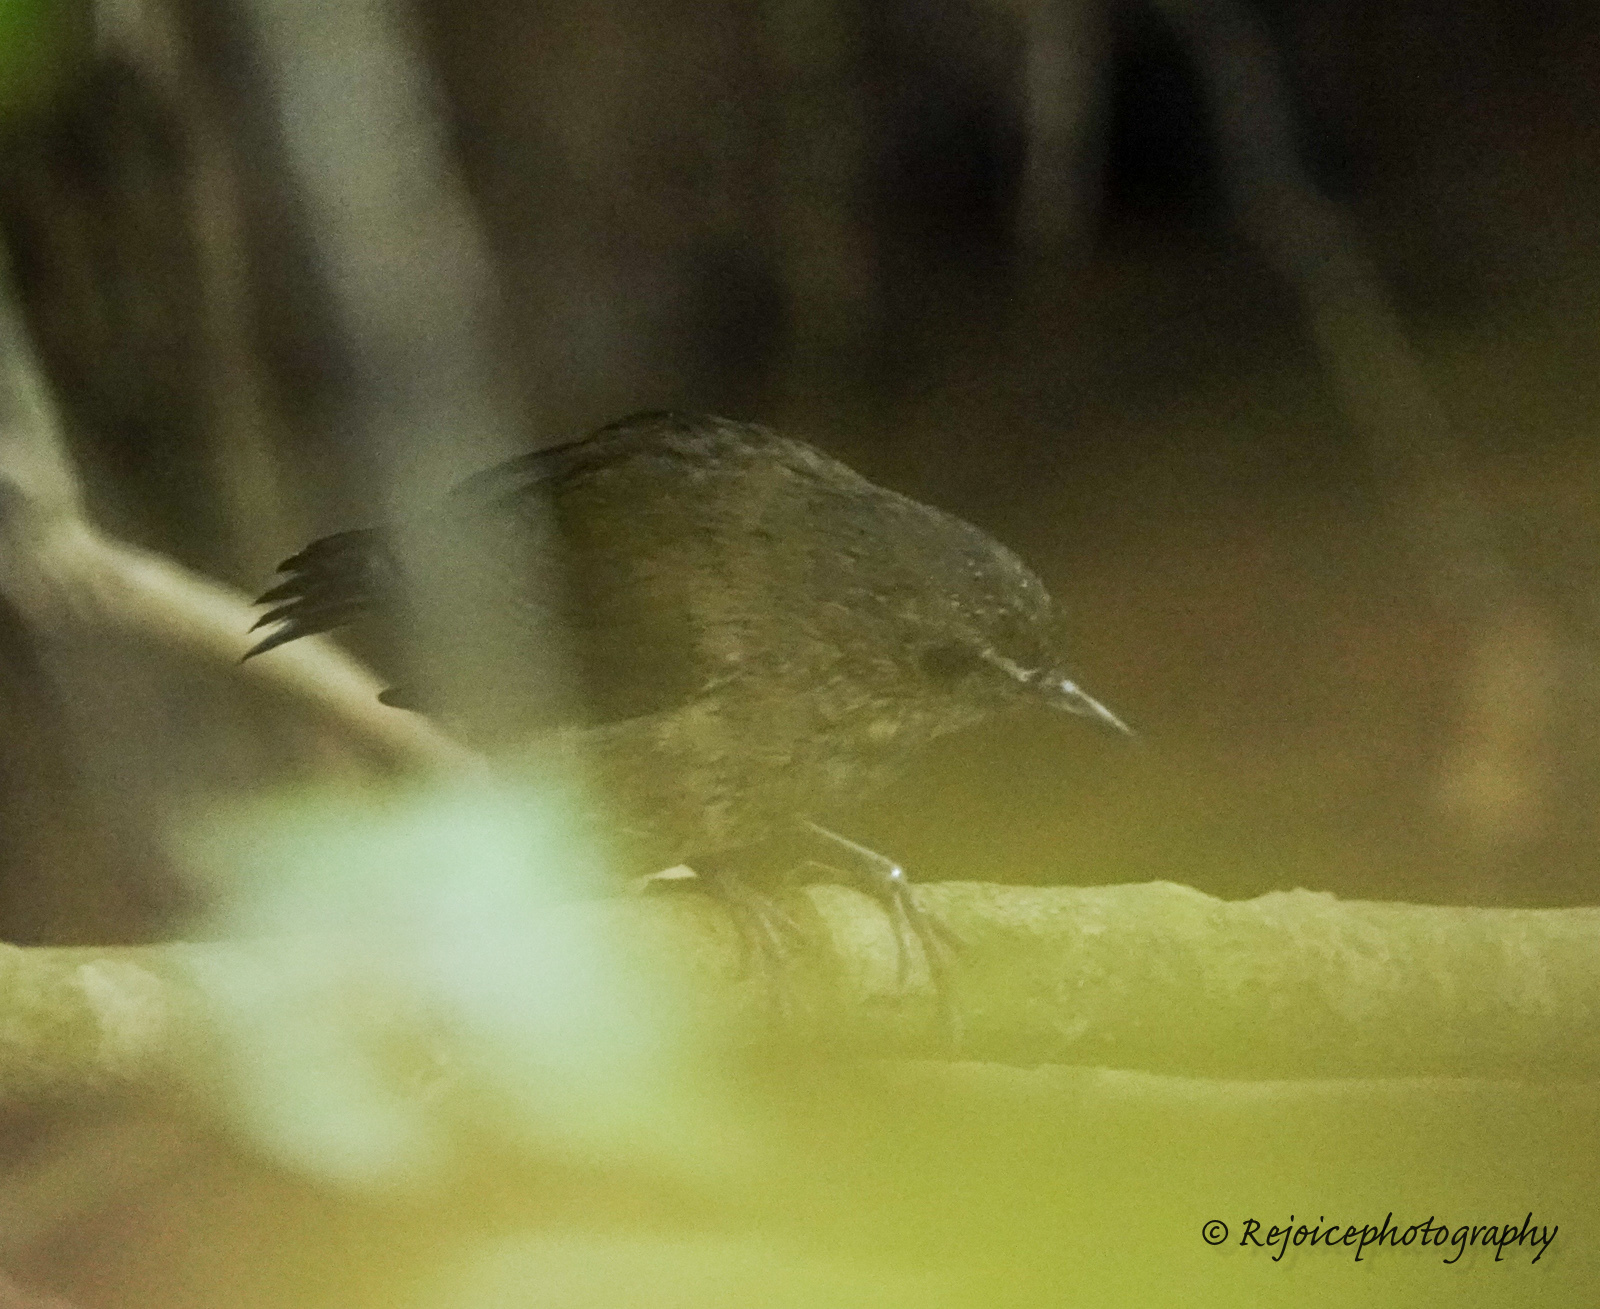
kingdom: Animalia
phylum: Chordata
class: Aves
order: Passeriformes
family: Muscicapidae
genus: Brachypteryx
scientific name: Brachypteryx leucophris
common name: Lesser shortwing
